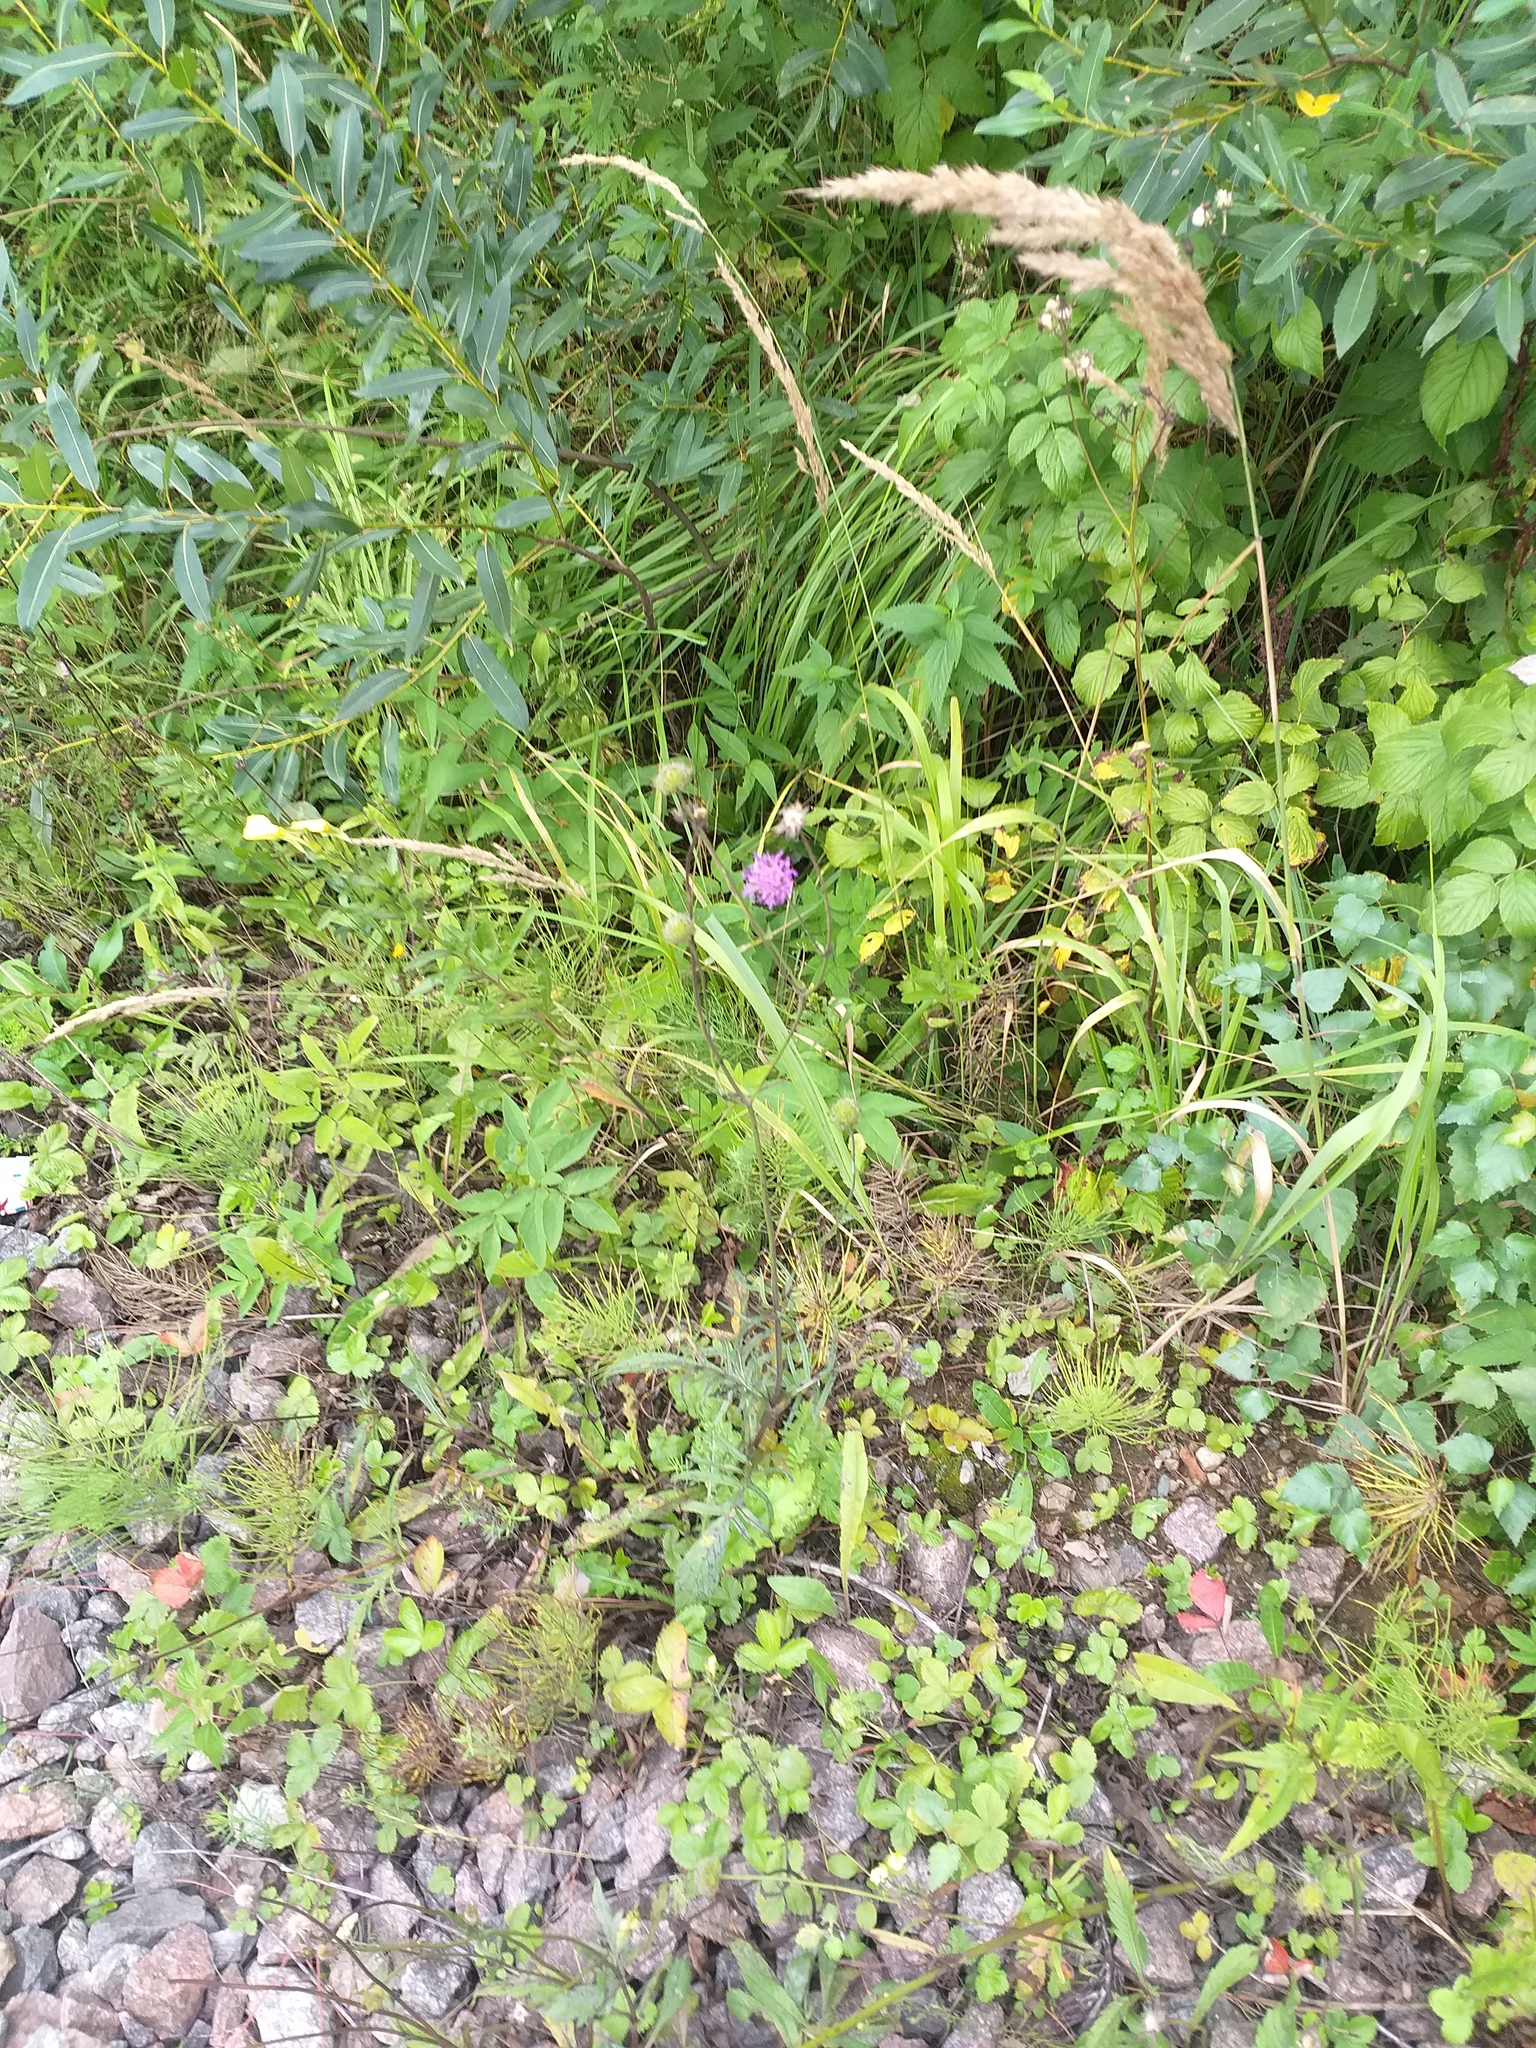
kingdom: Plantae
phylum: Tracheophyta
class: Magnoliopsida
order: Dipsacales
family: Caprifoliaceae
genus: Knautia
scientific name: Knautia arvensis
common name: Field scabiosa
